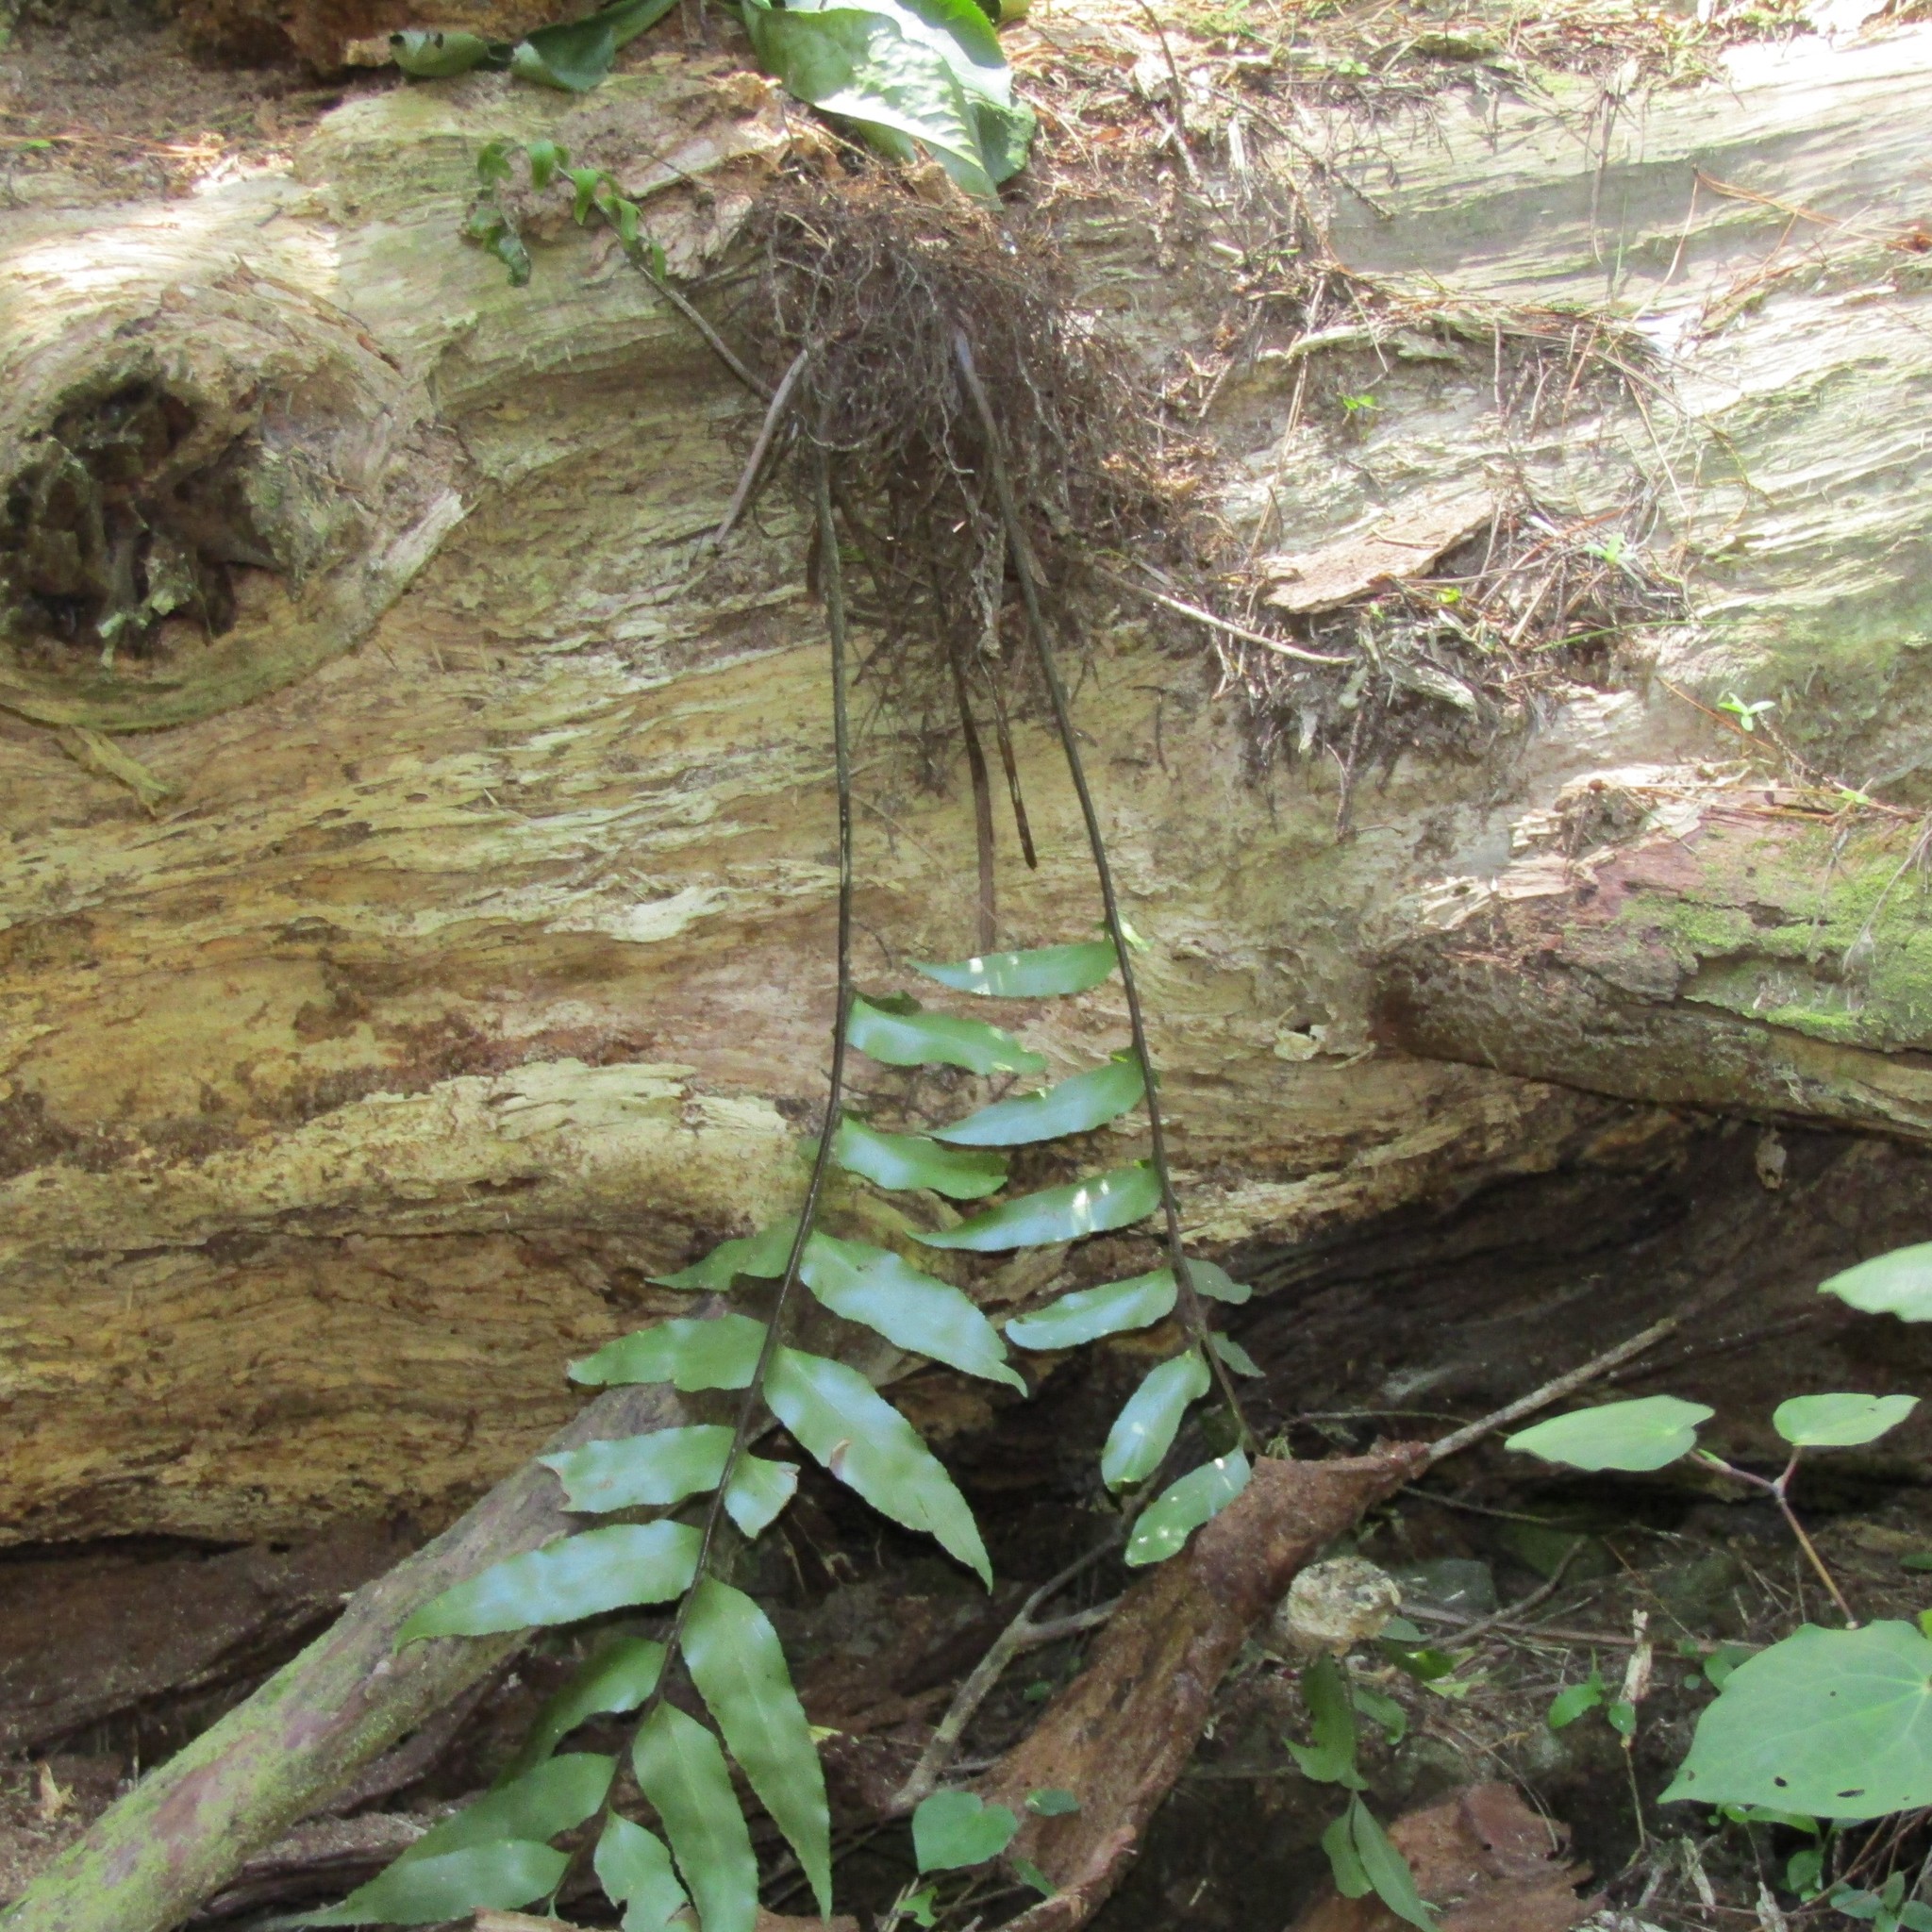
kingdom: Plantae
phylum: Tracheophyta
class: Polypodiopsida
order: Polypodiales
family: Aspleniaceae
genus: Asplenium
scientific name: Asplenium oblongifolium
